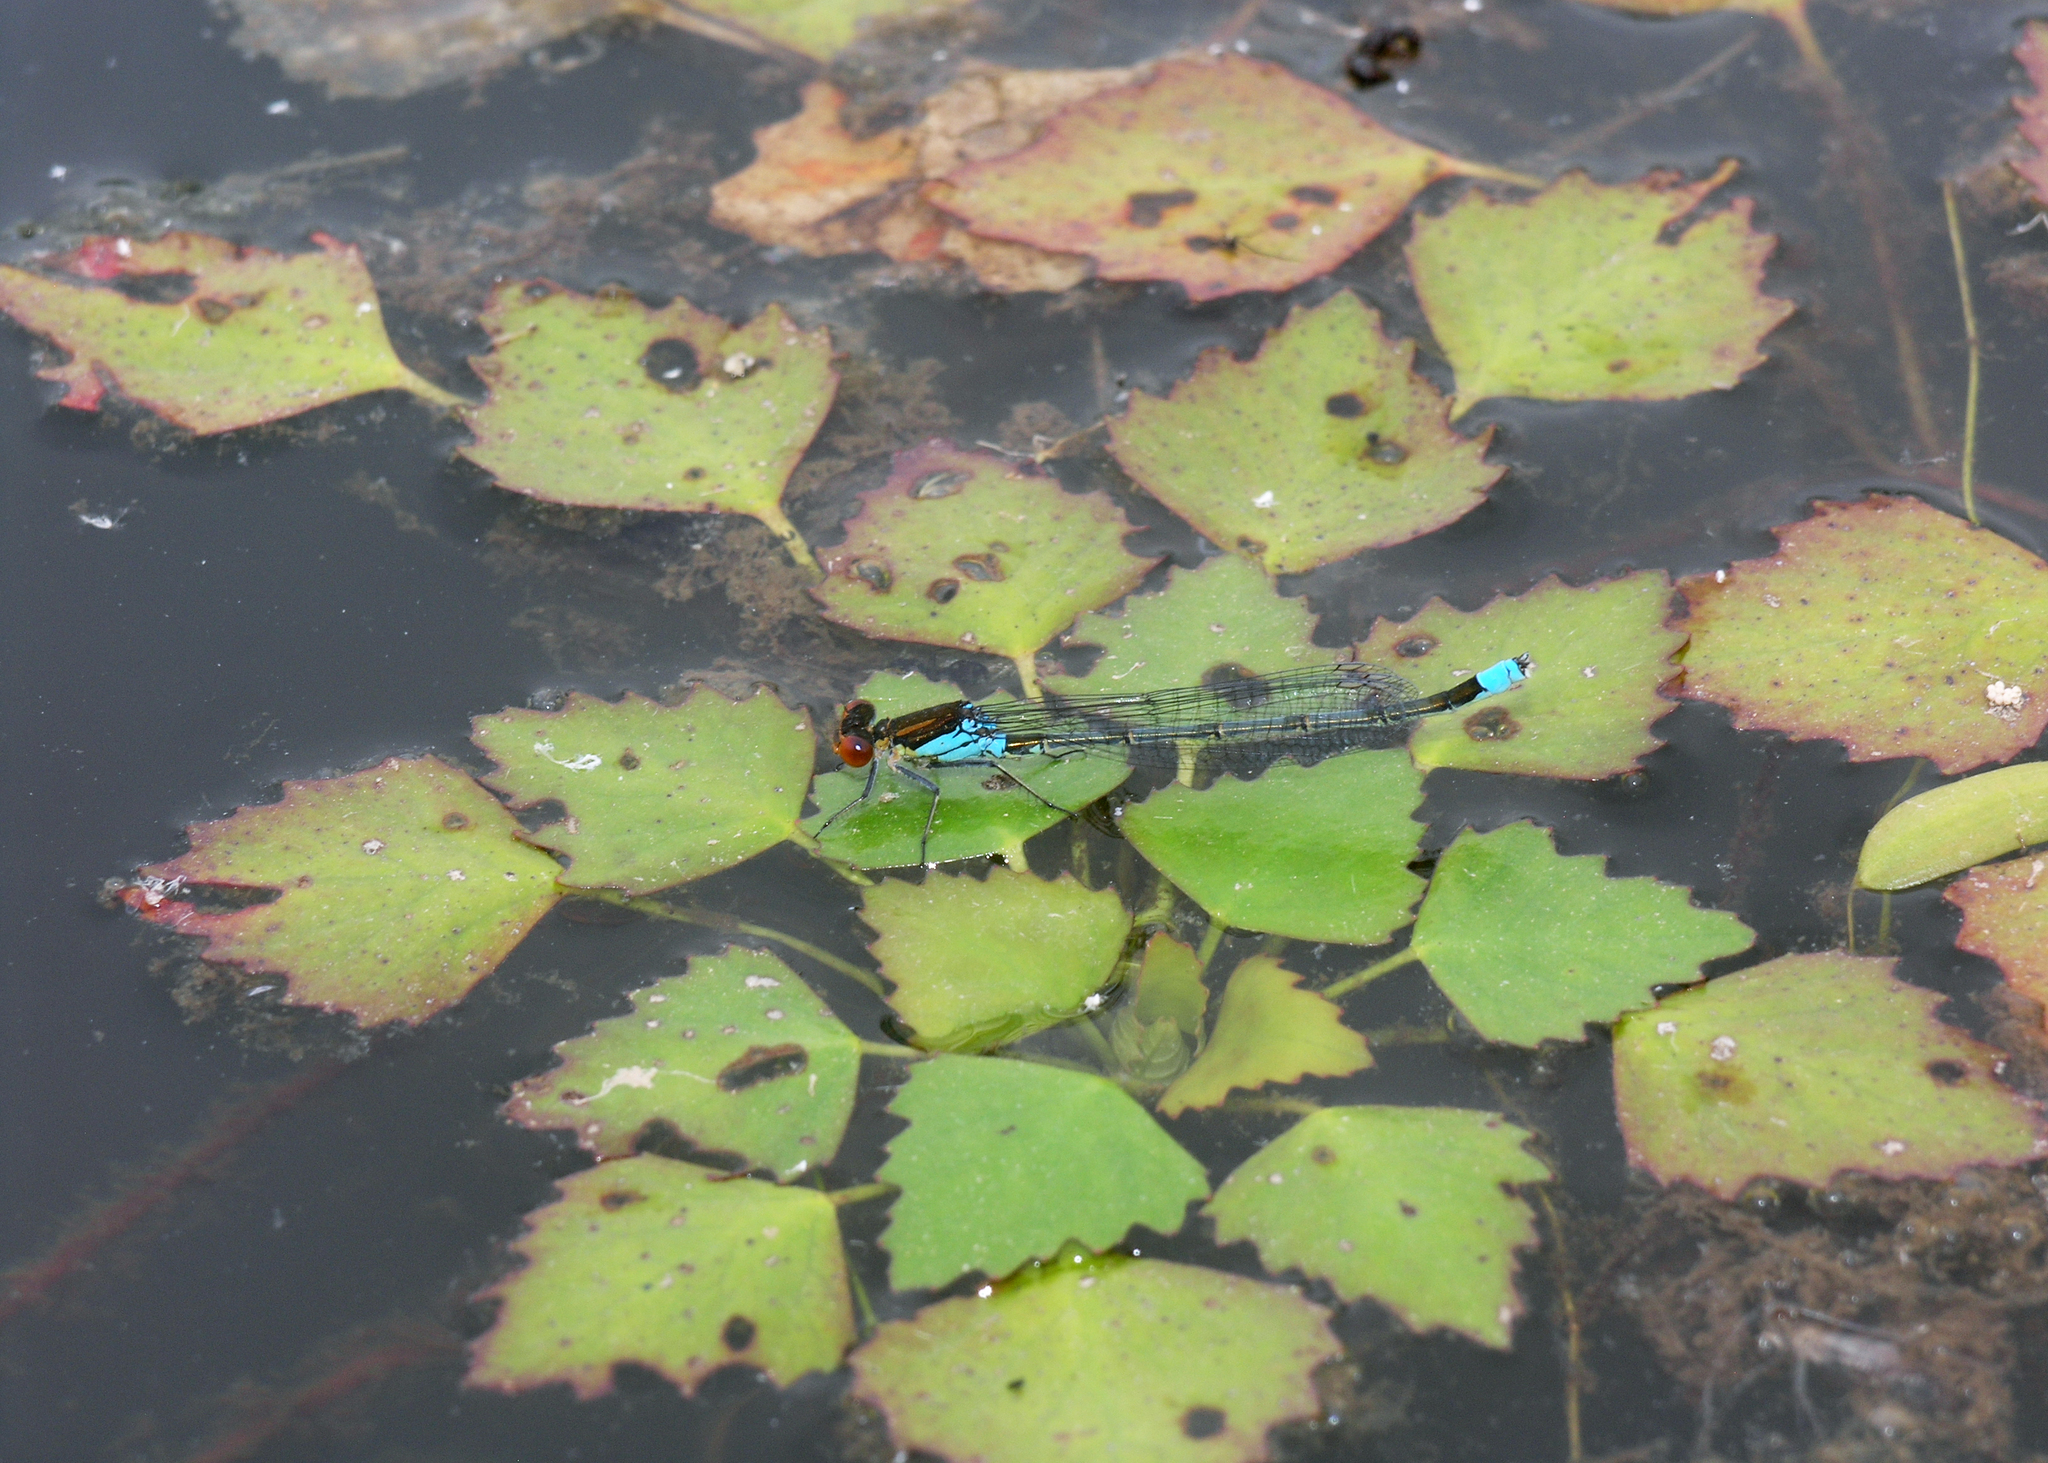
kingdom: Animalia
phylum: Arthropoda
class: Insecta
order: Odonata
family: Coenagrionidae
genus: Erythromma
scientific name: Erythromma najas
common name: Red-eyed damselfly
